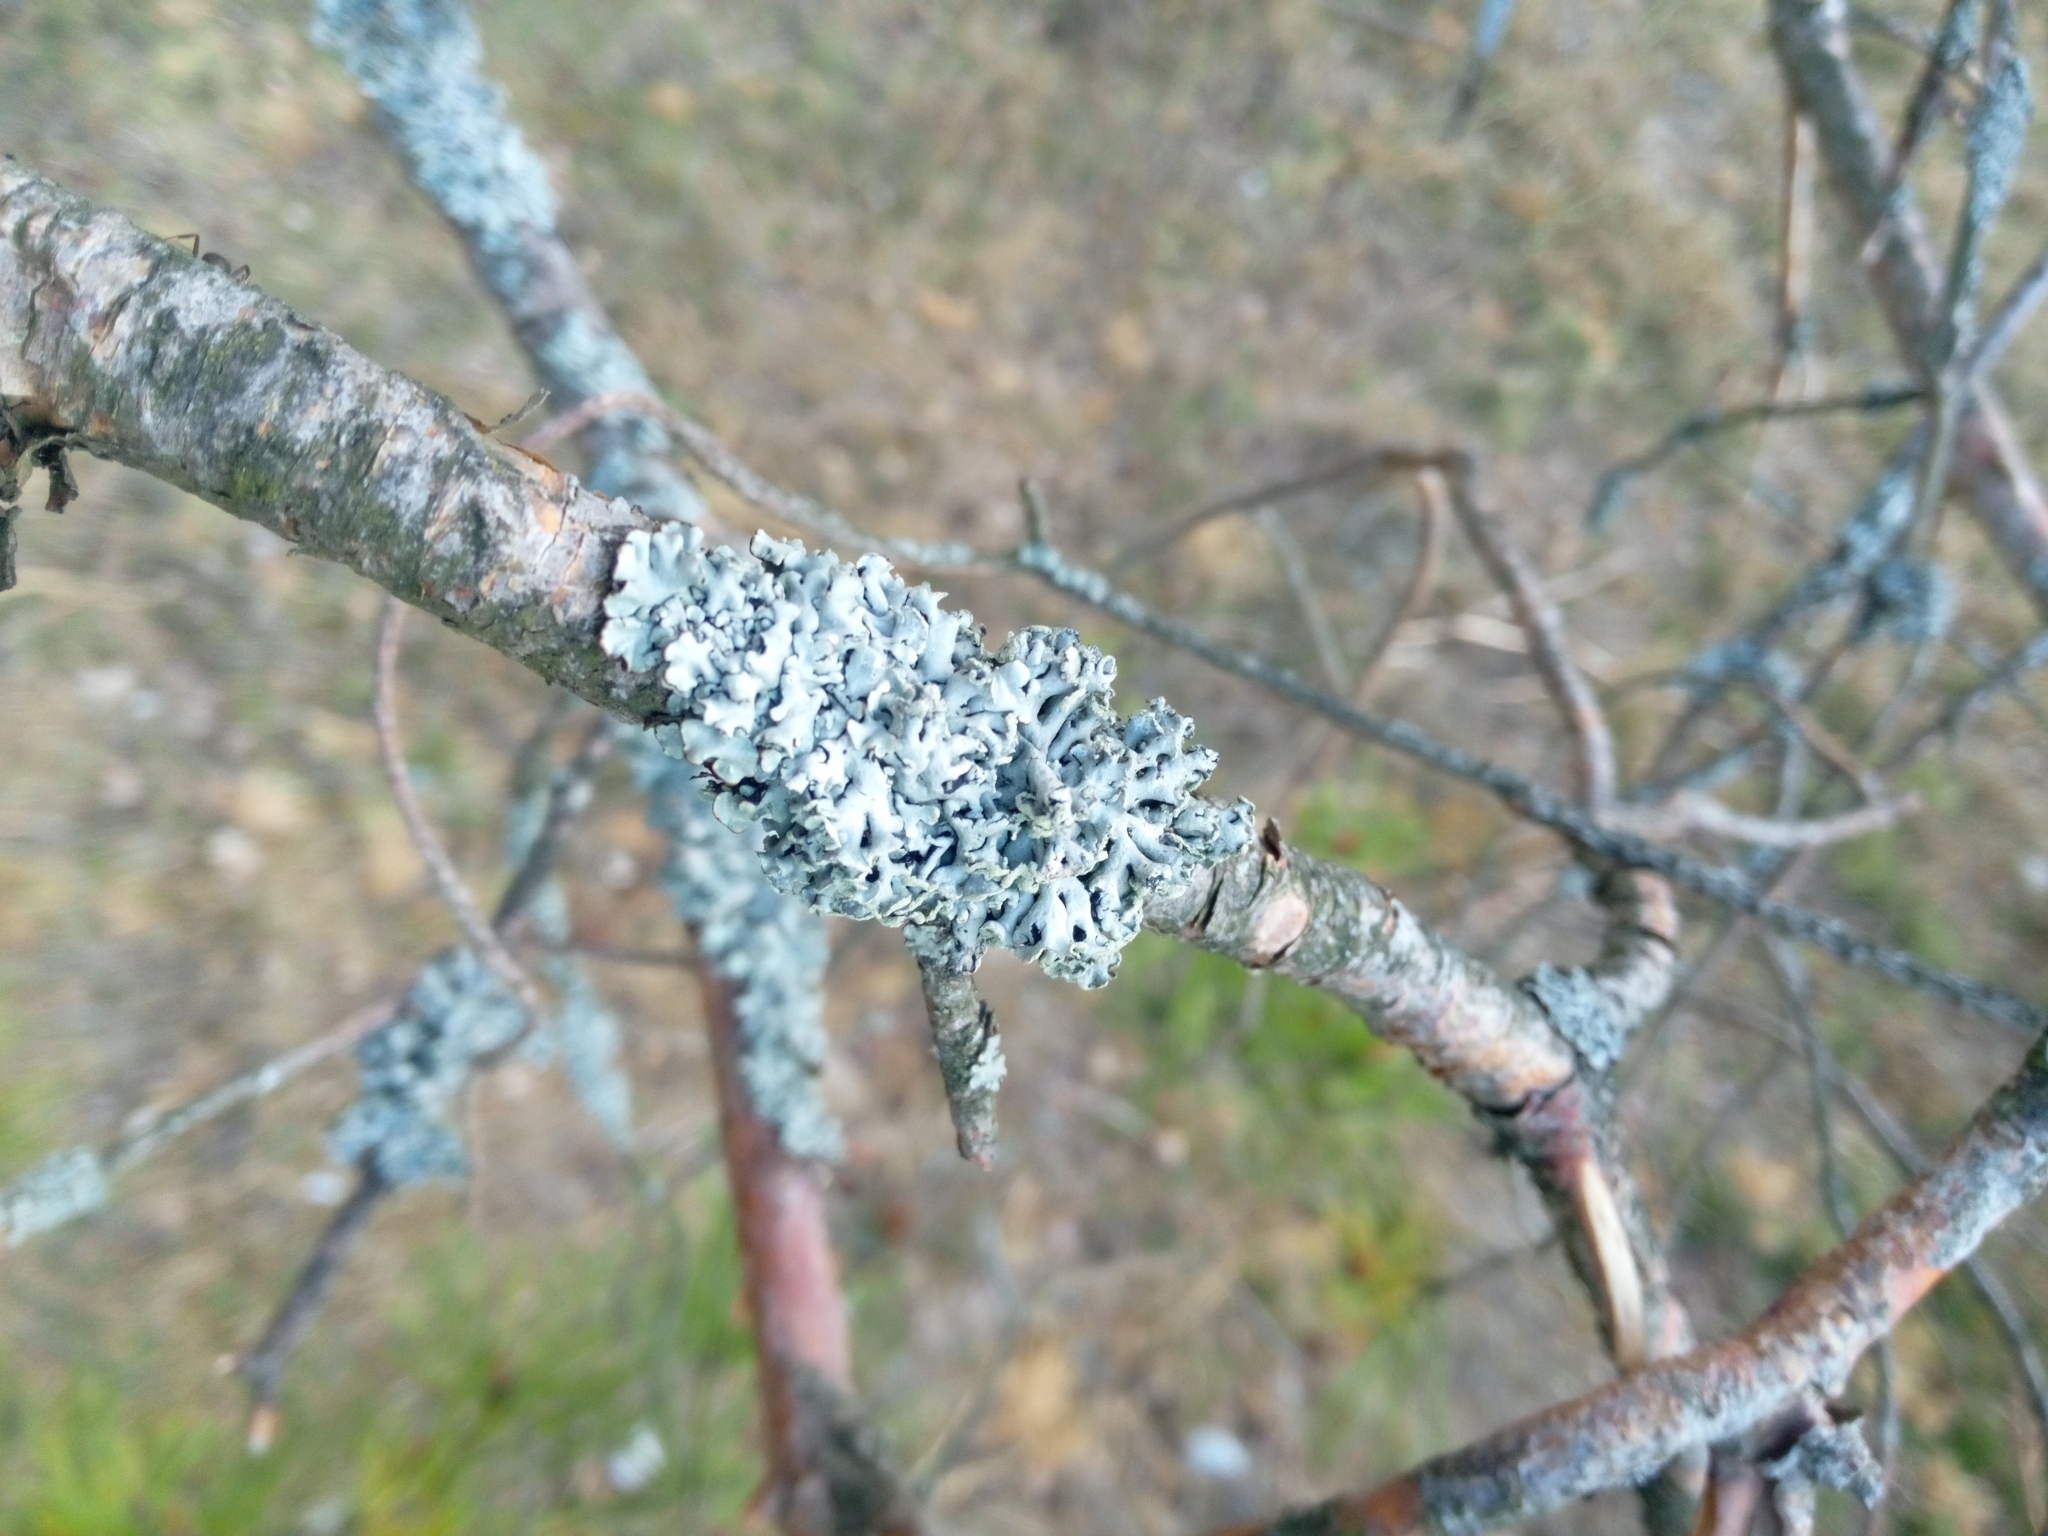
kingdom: Fungi
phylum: Ascomycota
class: Lecanoromycetes
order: Lecanorales
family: Parmeliaceae
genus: Hypogymnia
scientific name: Hypogymnia physodes
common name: Dark crottle
